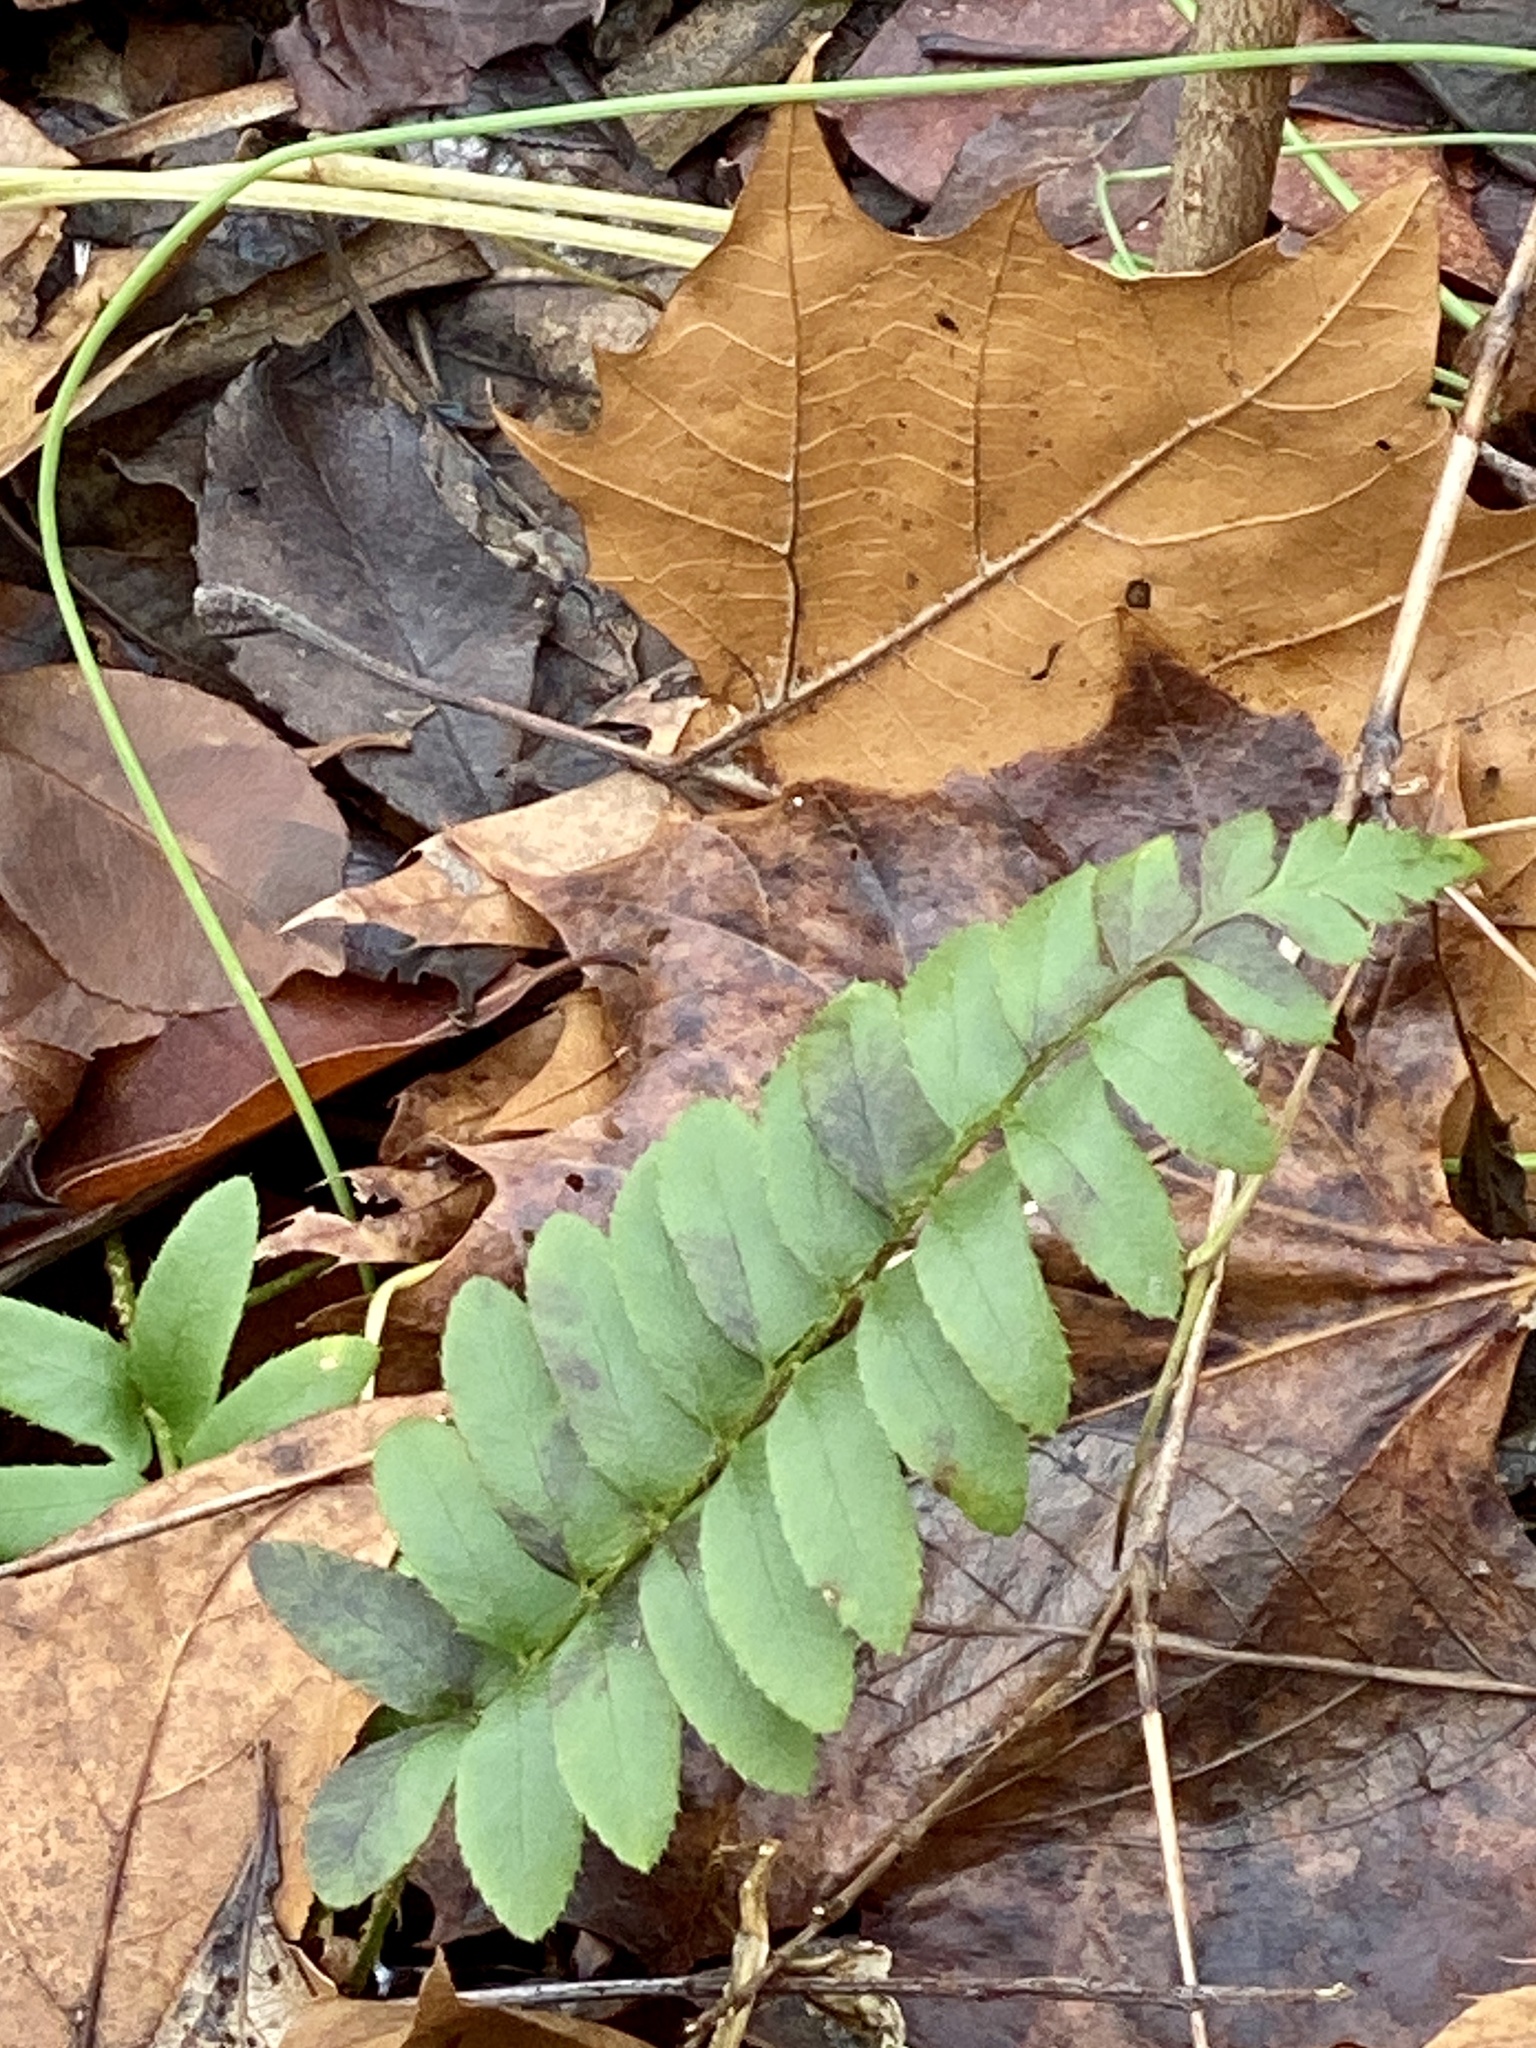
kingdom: Plantae
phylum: Tracheophyta
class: Polypodiopsida
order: Polypodiales
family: Dryopteridaceae
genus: Polystichum
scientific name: Polystichum acrostichoides
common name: Christmas fern
